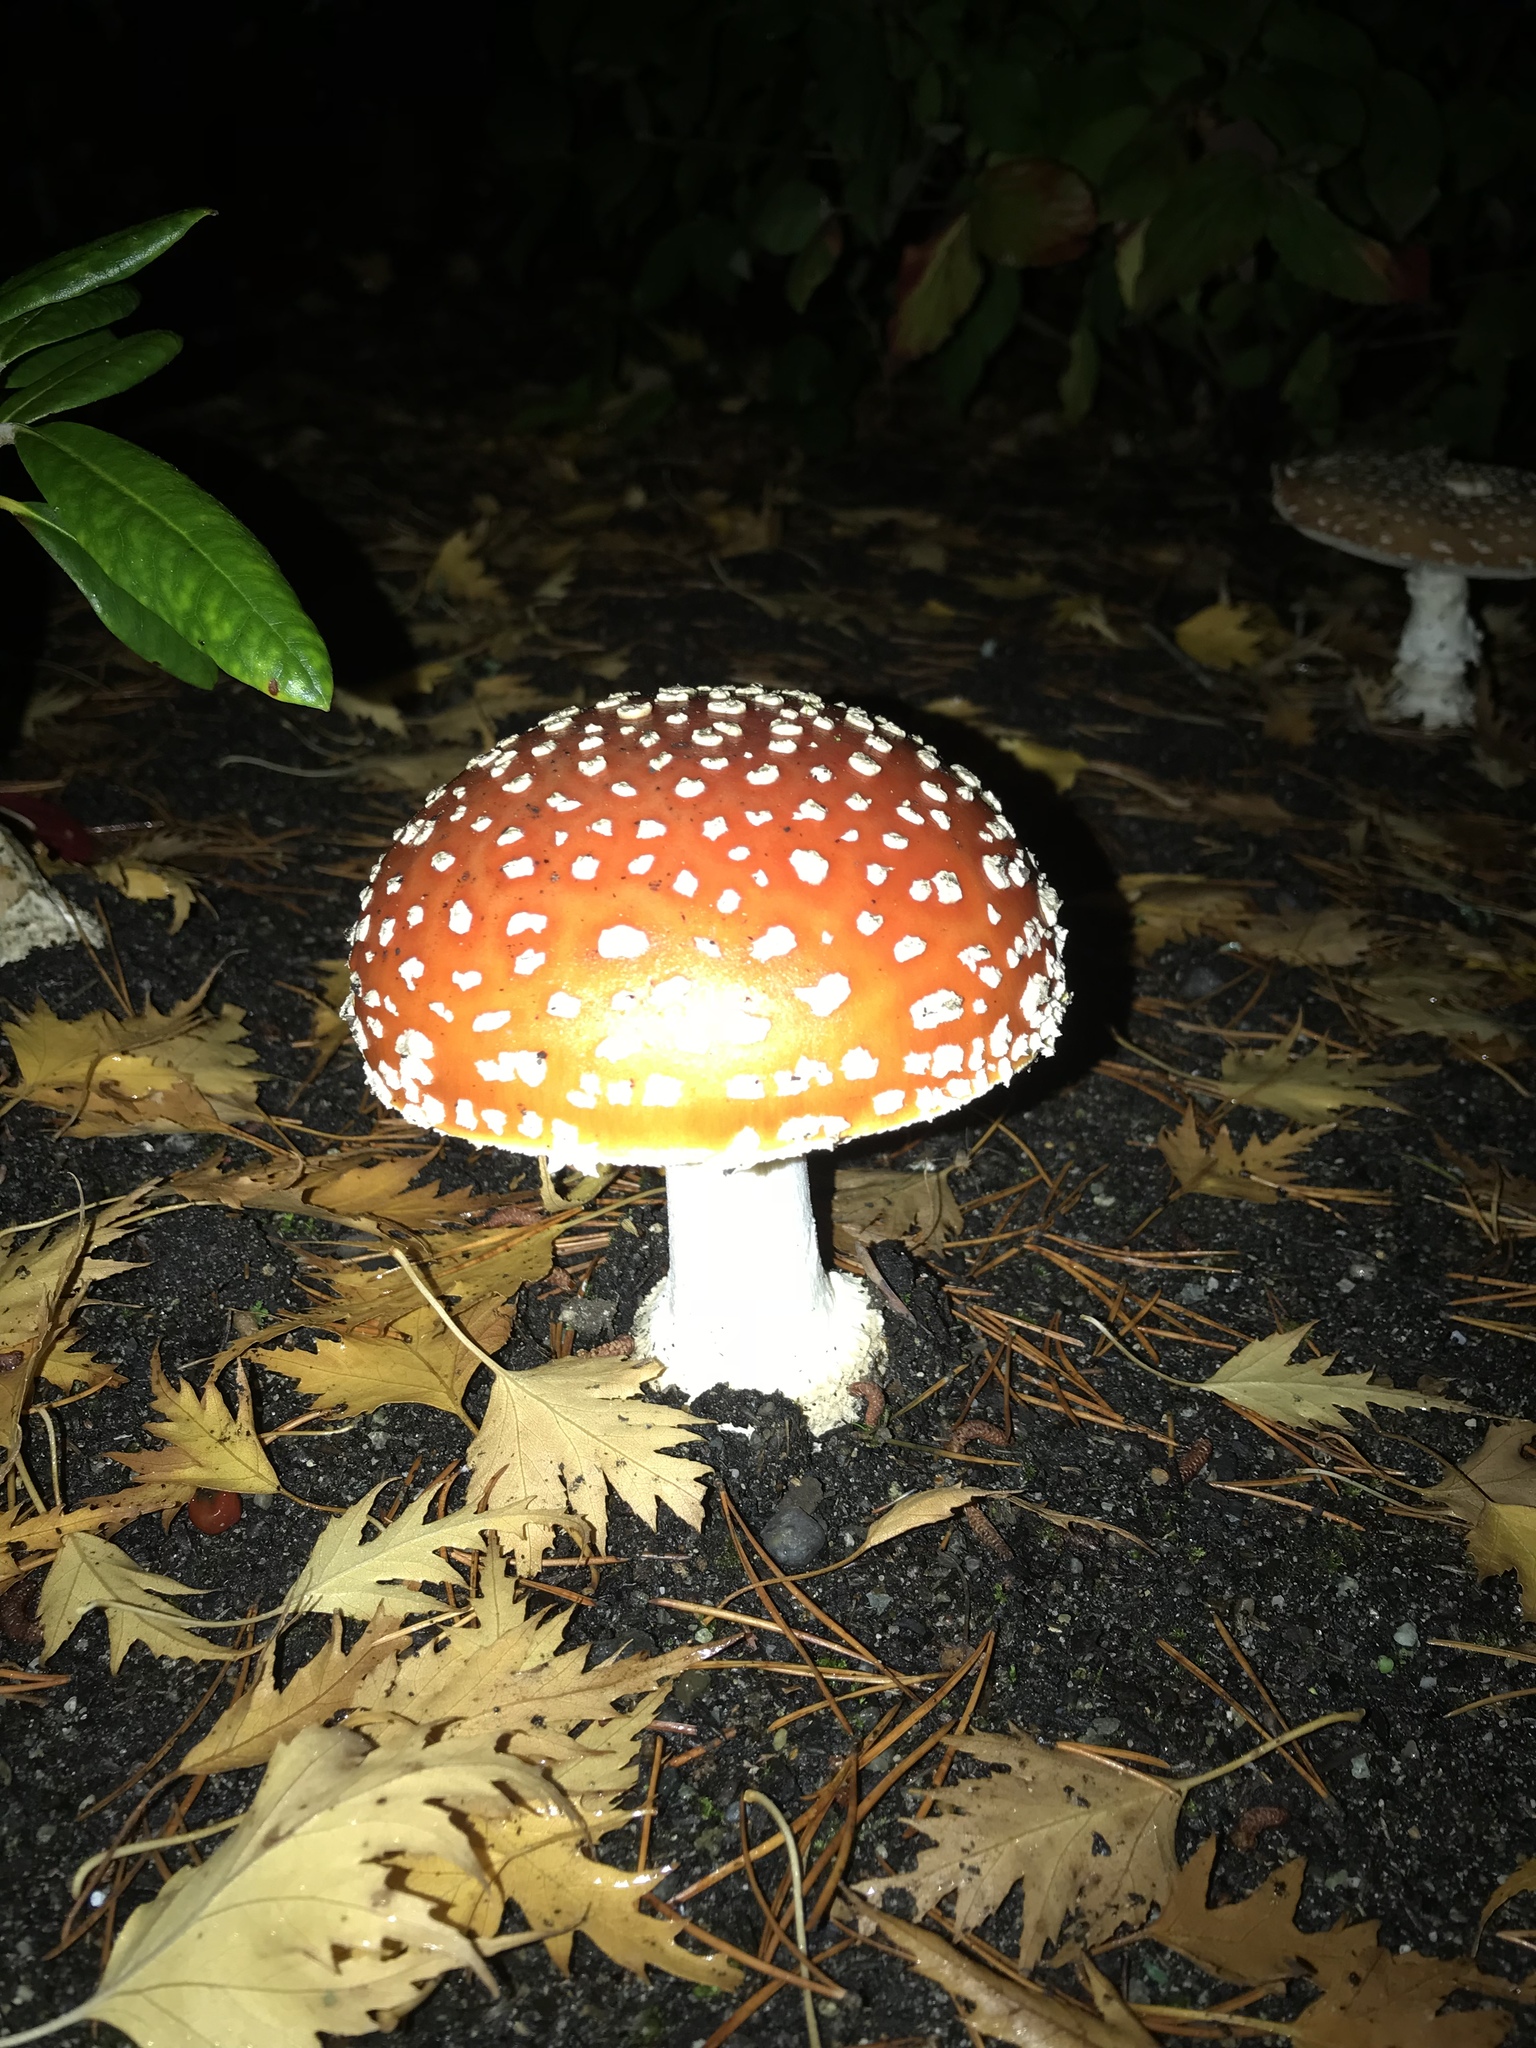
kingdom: Fungi
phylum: Basidiomycota
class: Agaricomycetes
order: Agaricales
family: Amanitaceae
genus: Amanita
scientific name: Amanita muscaria
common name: Fly agaric
